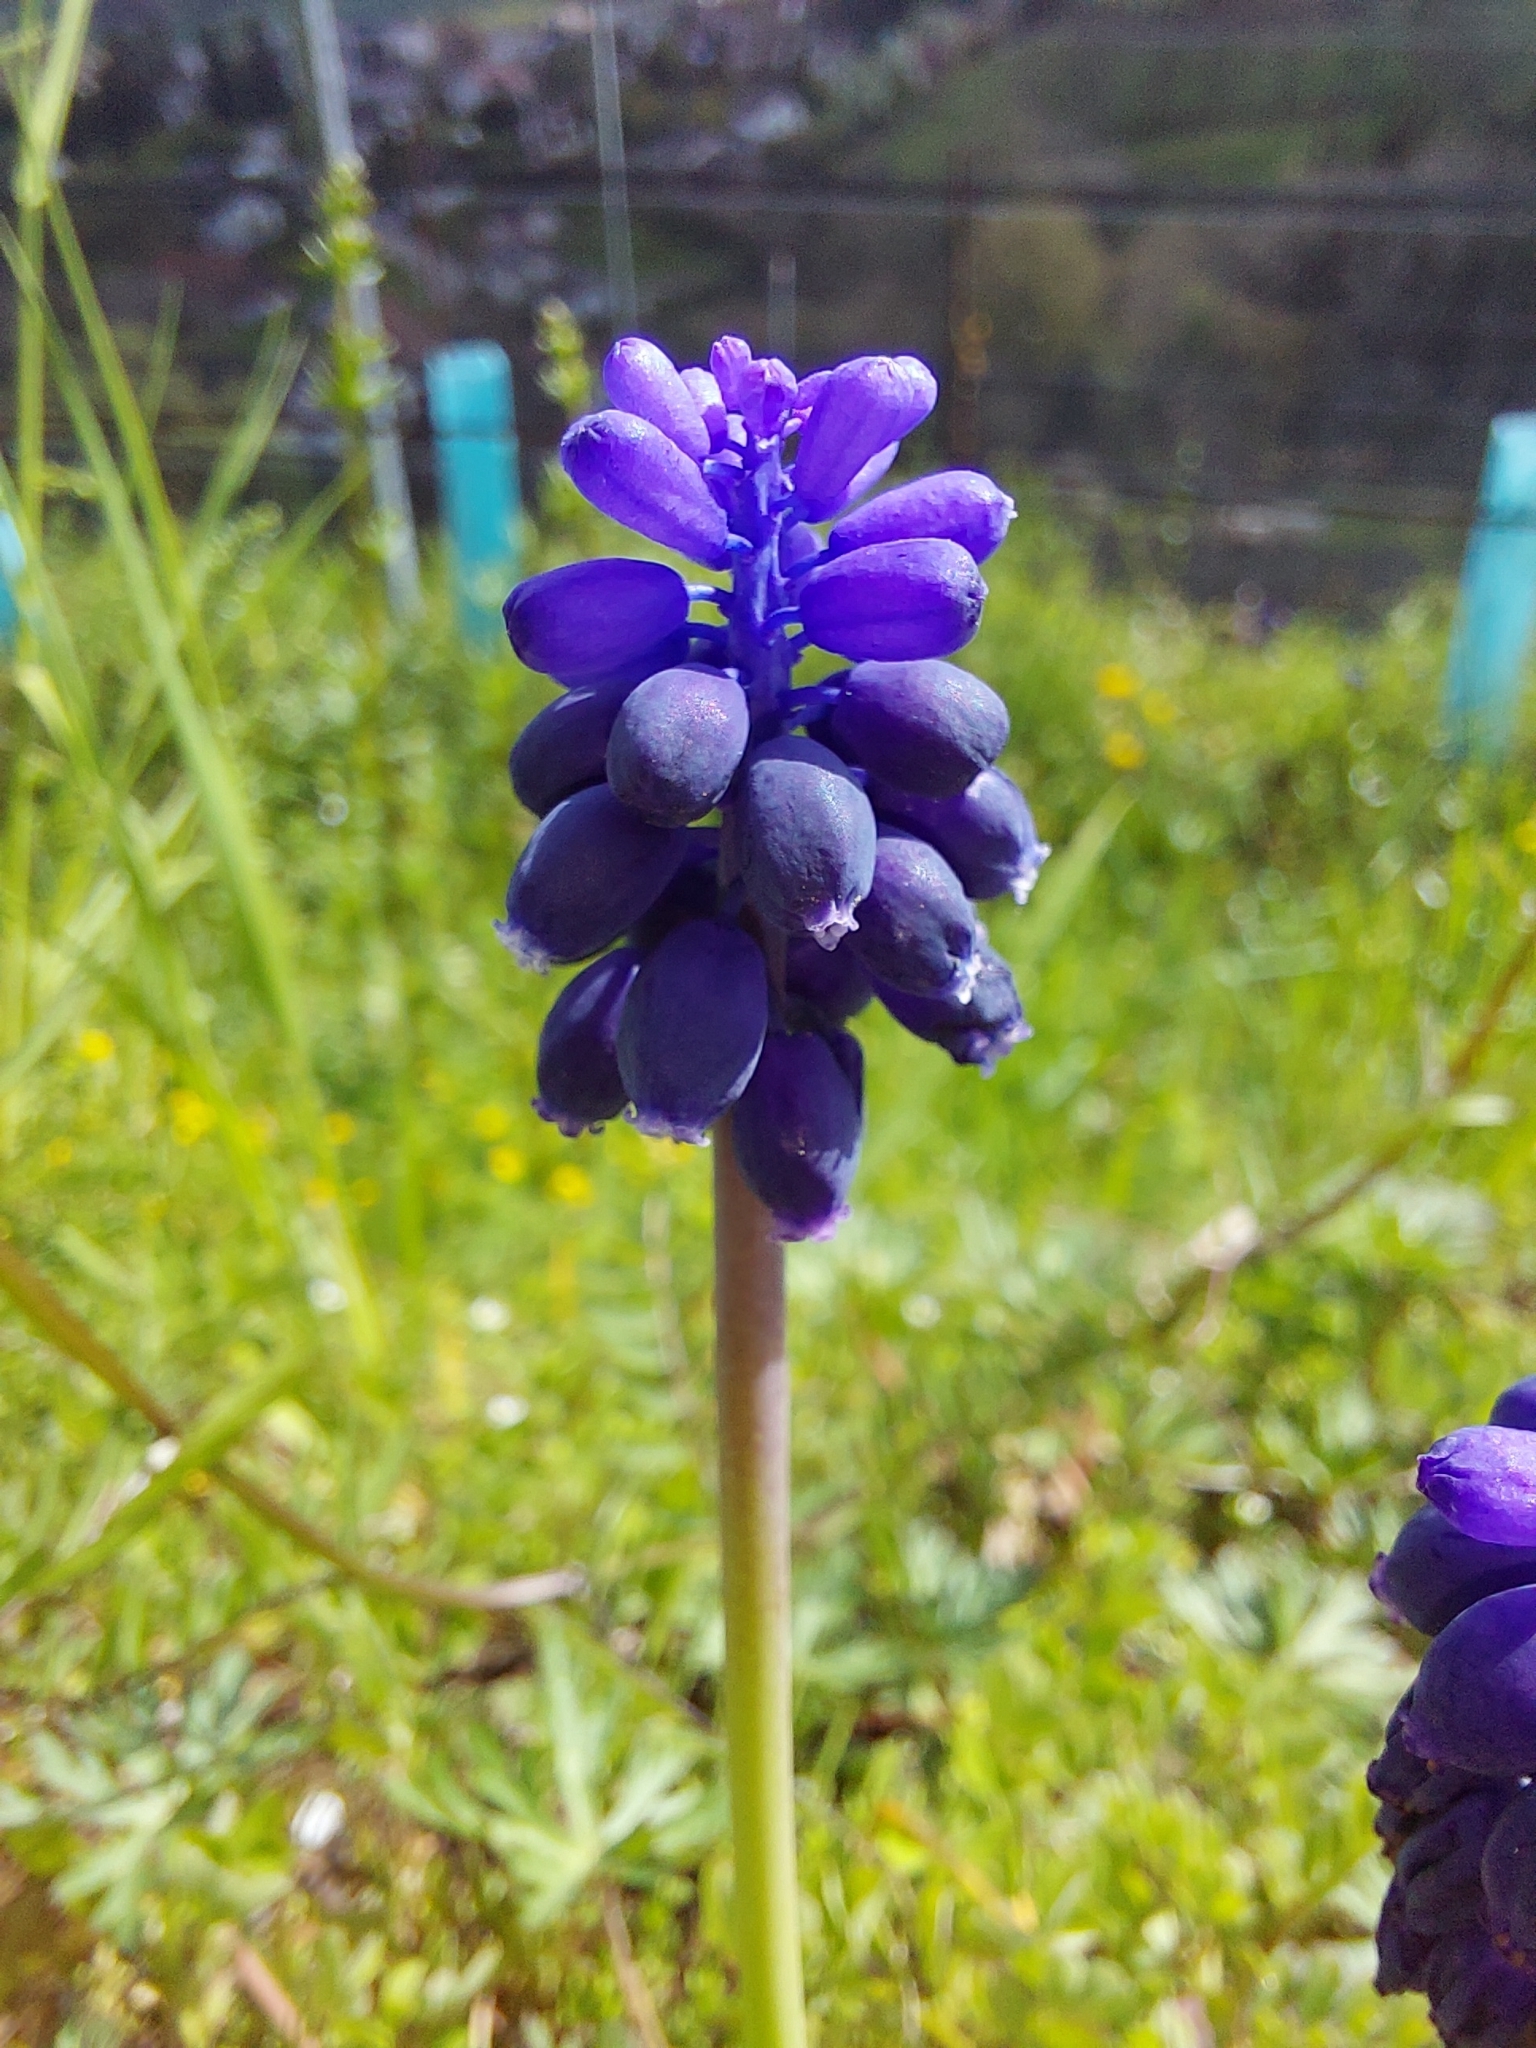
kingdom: Plantae
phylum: Tracheophyta
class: Liliopsida
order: Asparagales
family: Asparagaceae
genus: Muscari
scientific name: Muscari neglectum
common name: Grape-hyacinth
